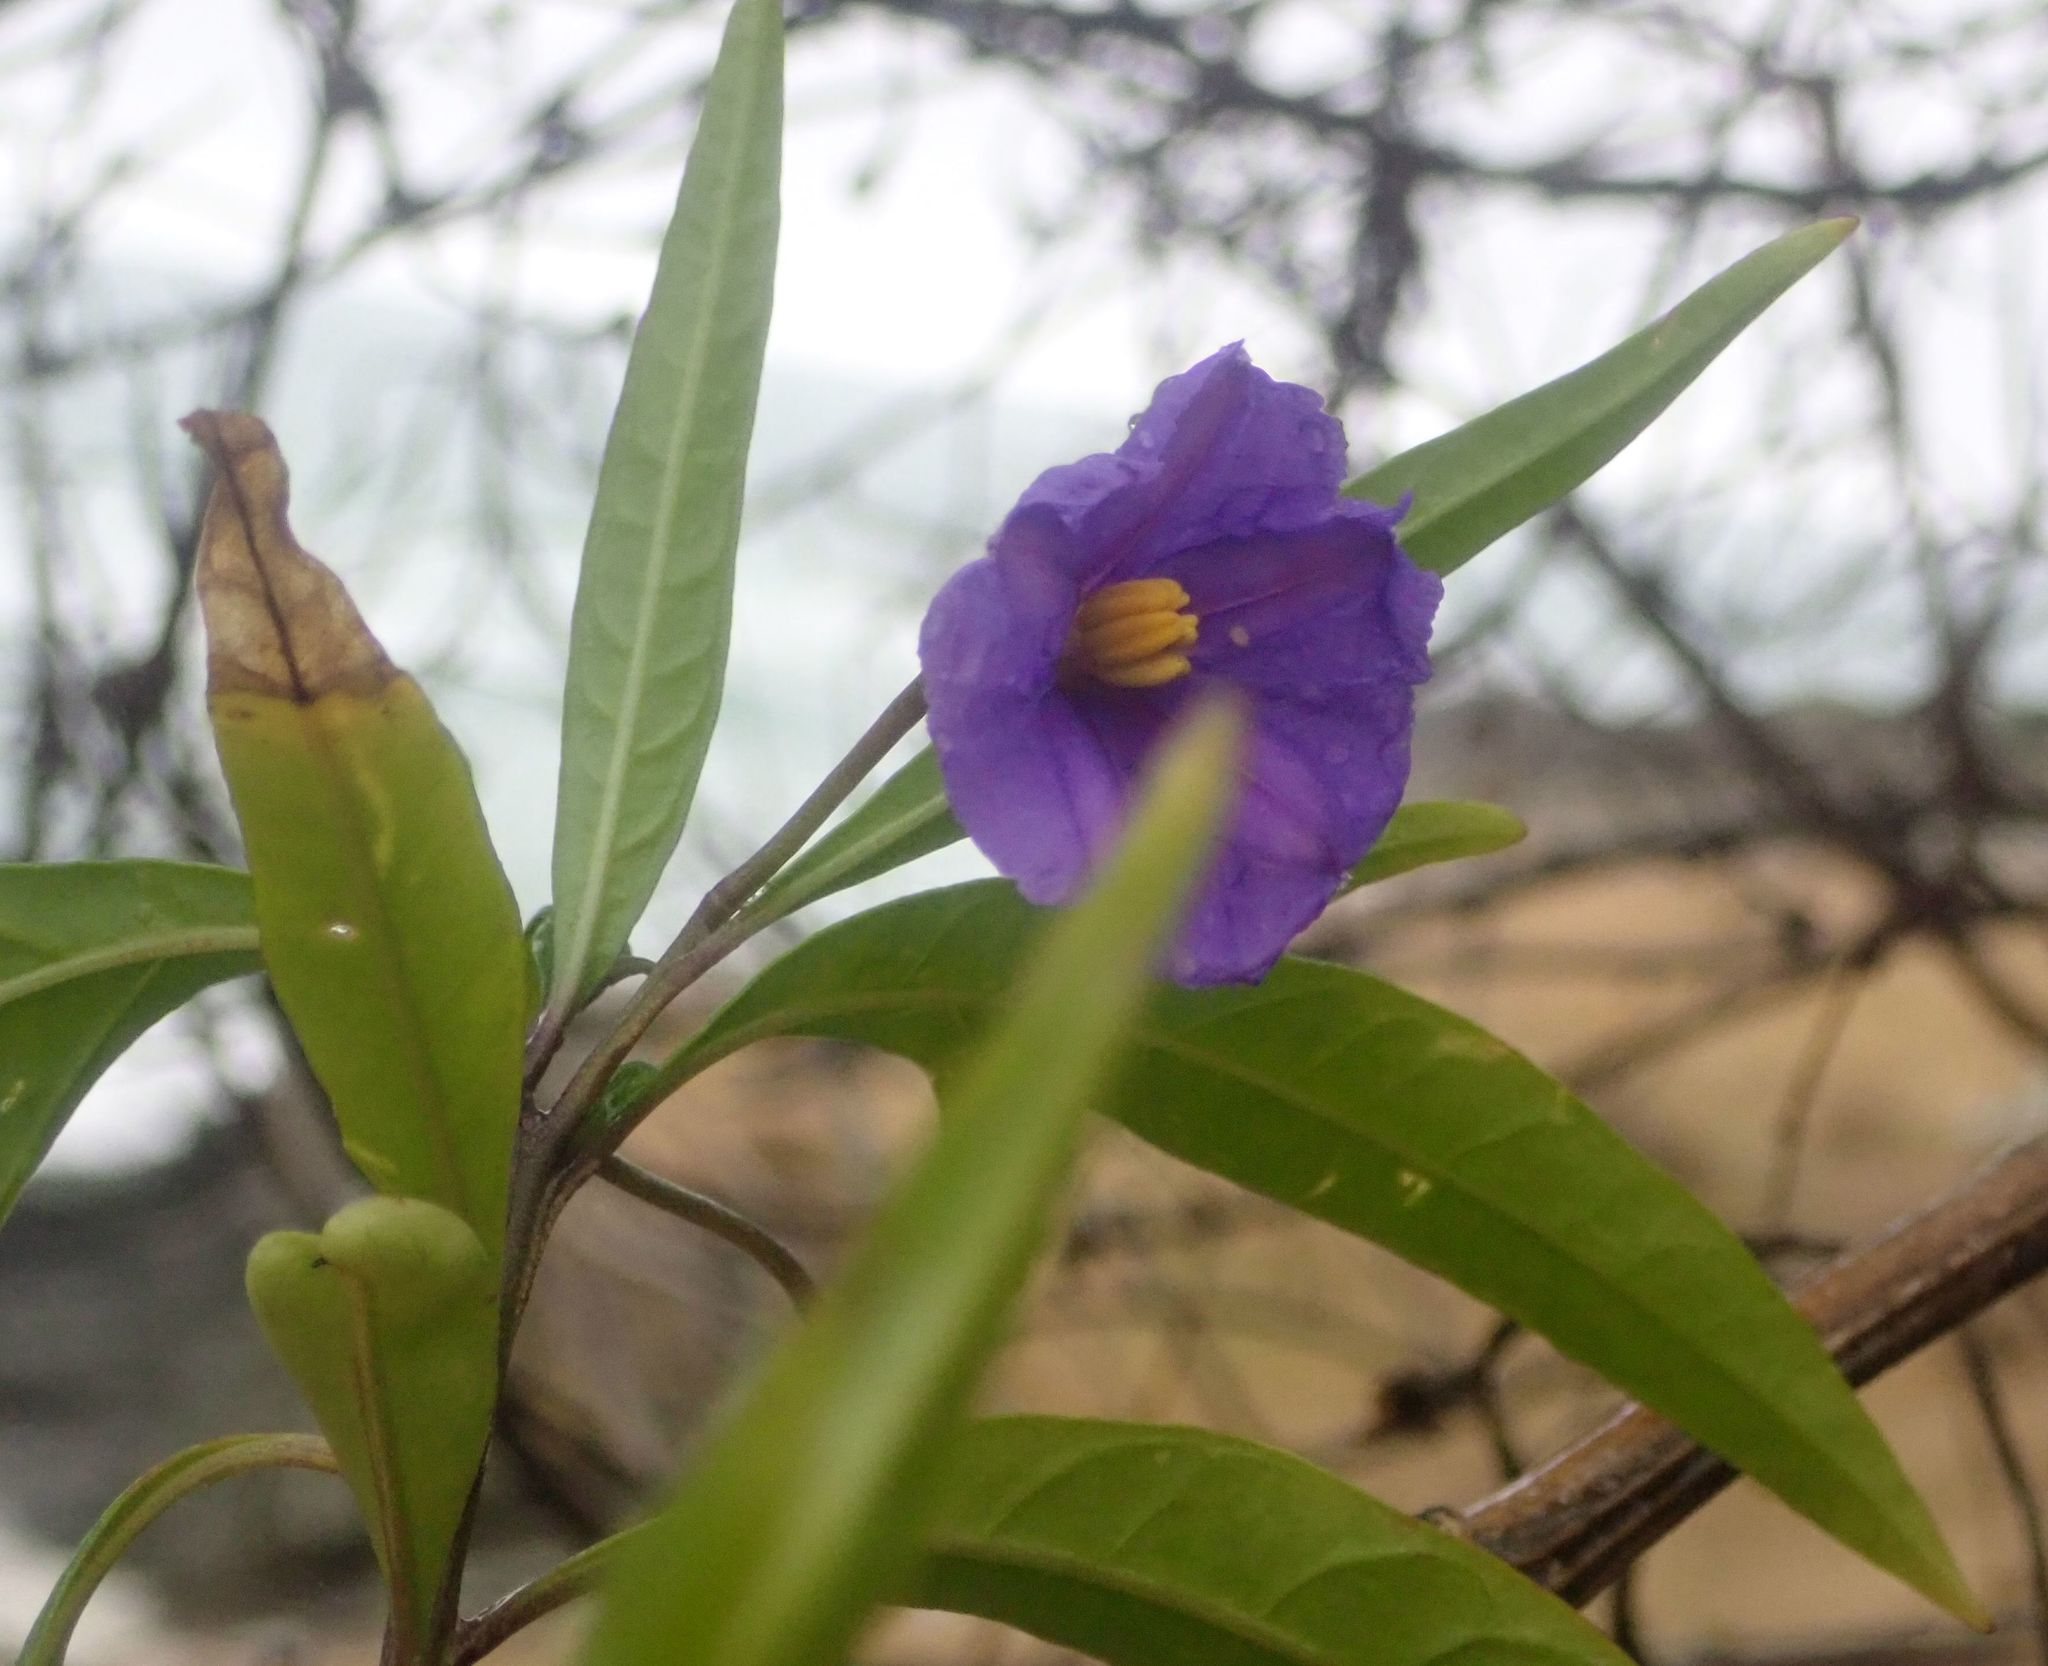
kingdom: Plantae
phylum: Tracheophyta
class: Magnoliopsida
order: Solanales
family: Solanaceae
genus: Solanum
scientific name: Solanum laciniatum
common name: Kangaroo-apple
